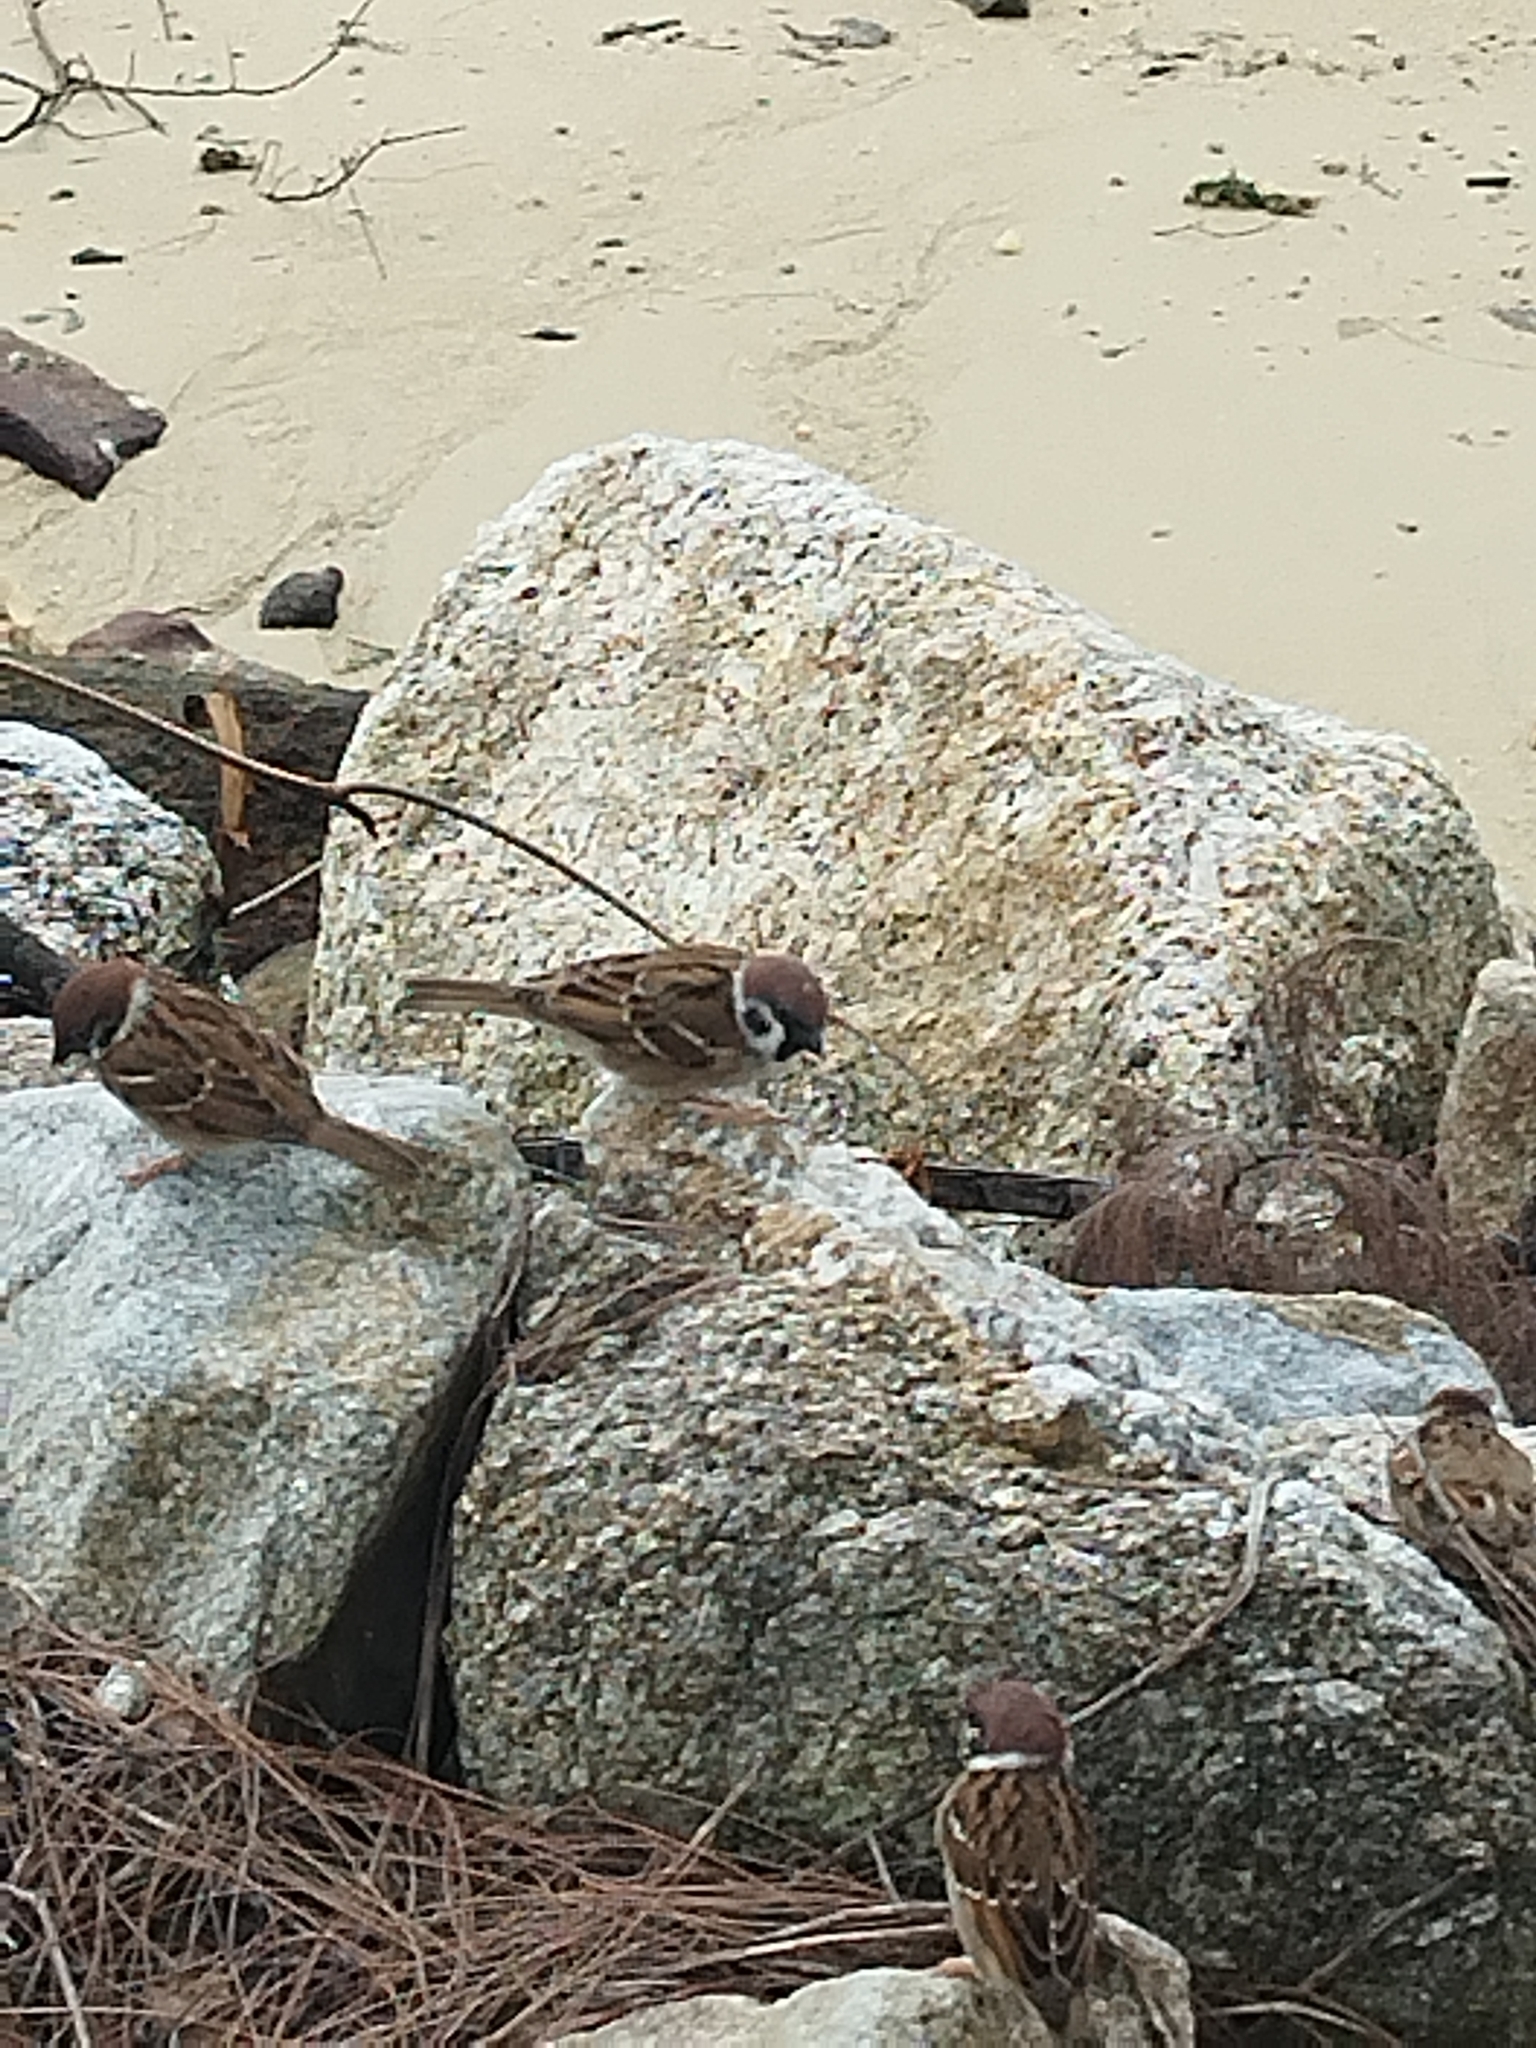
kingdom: Animalia
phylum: Chordata
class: Aves
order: Passeriformes
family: Passeridae
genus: Passer
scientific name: Passer montanus
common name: Eurasian tree sparrow
